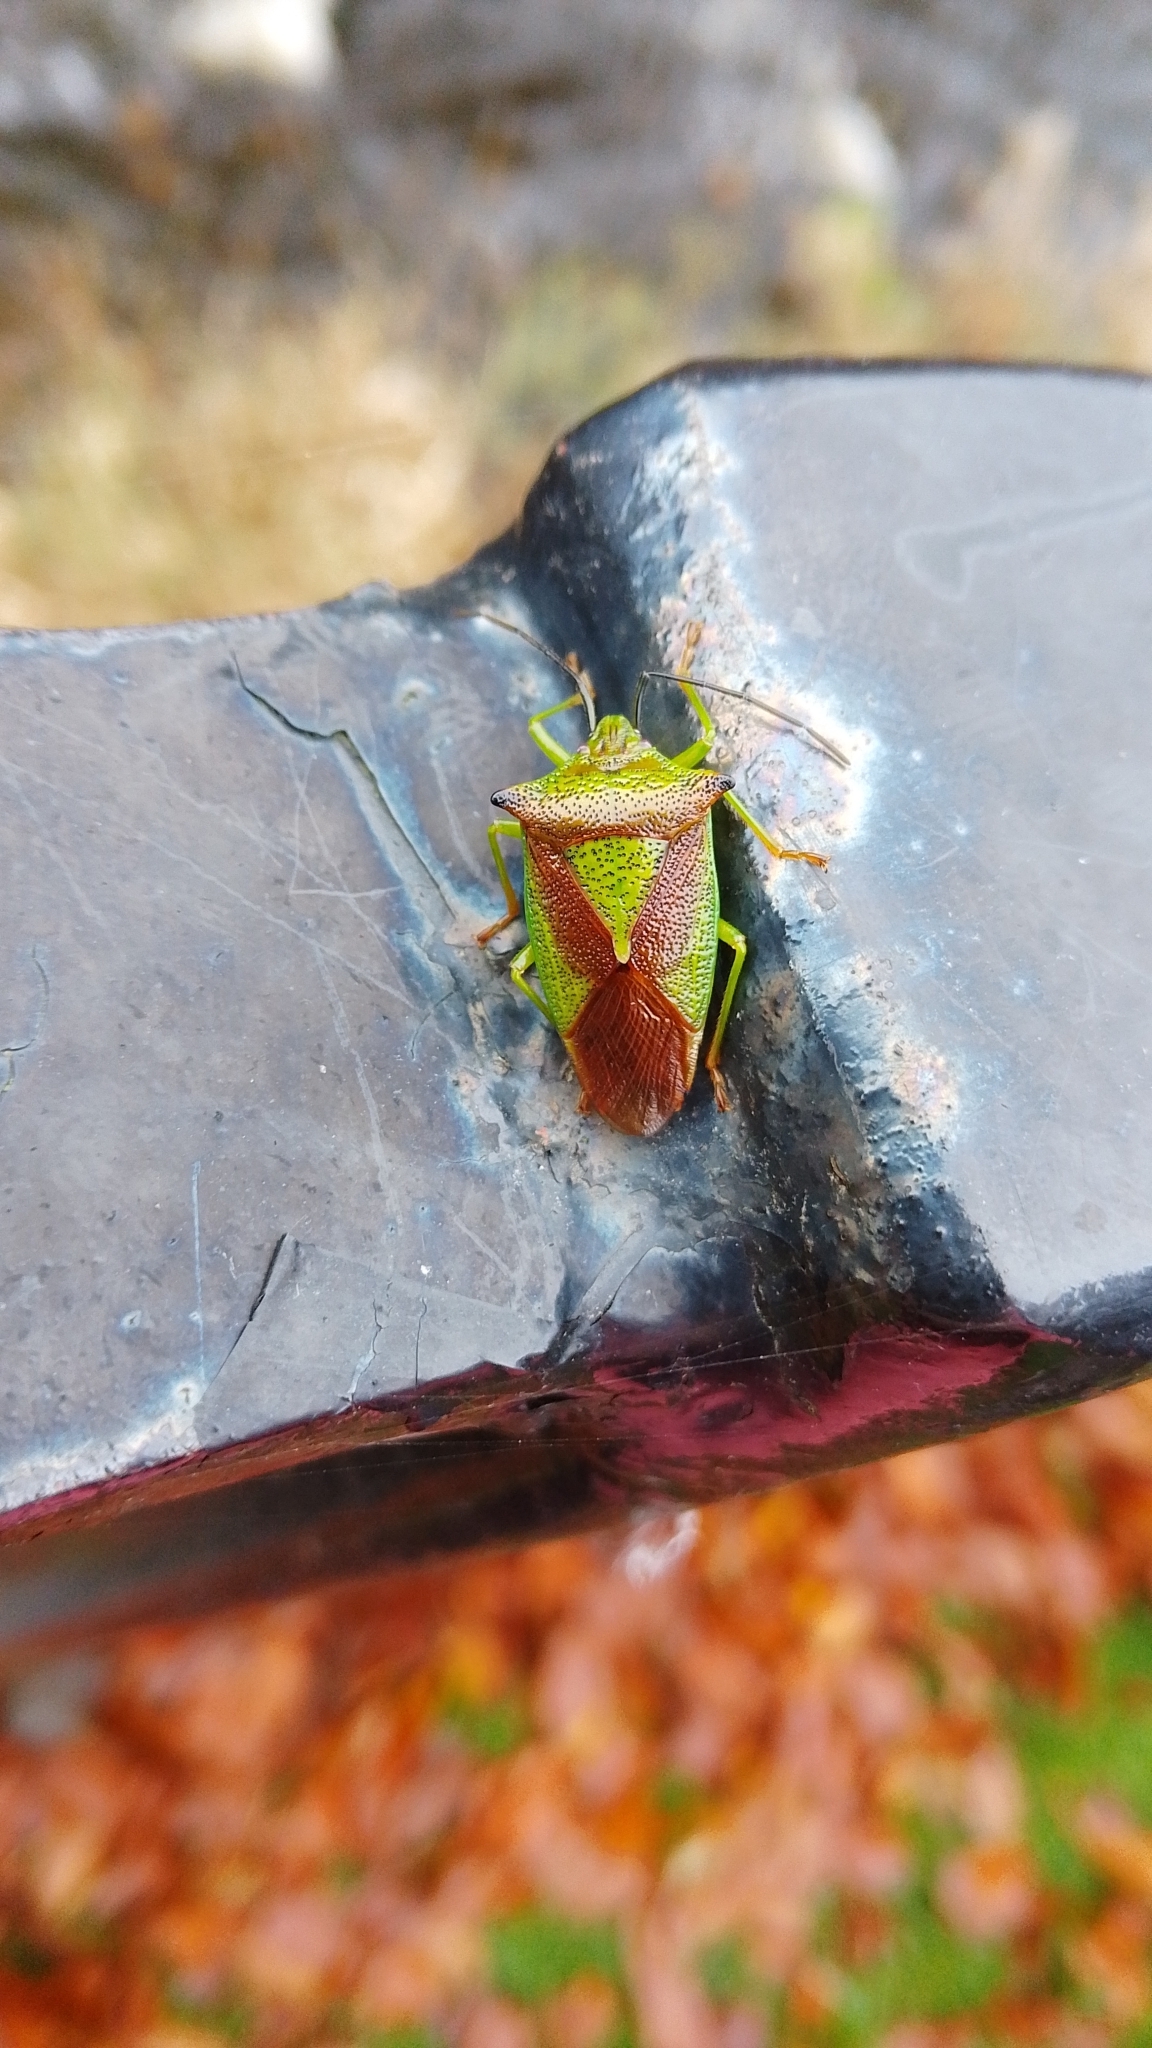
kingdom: Animalia
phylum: Arthropoda
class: Insecta
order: Hemiptera
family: Acanthosomatidae
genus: Acanthosoma
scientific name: Acanthosoma haemorrhoidale
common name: Hawthorn shieldbug
